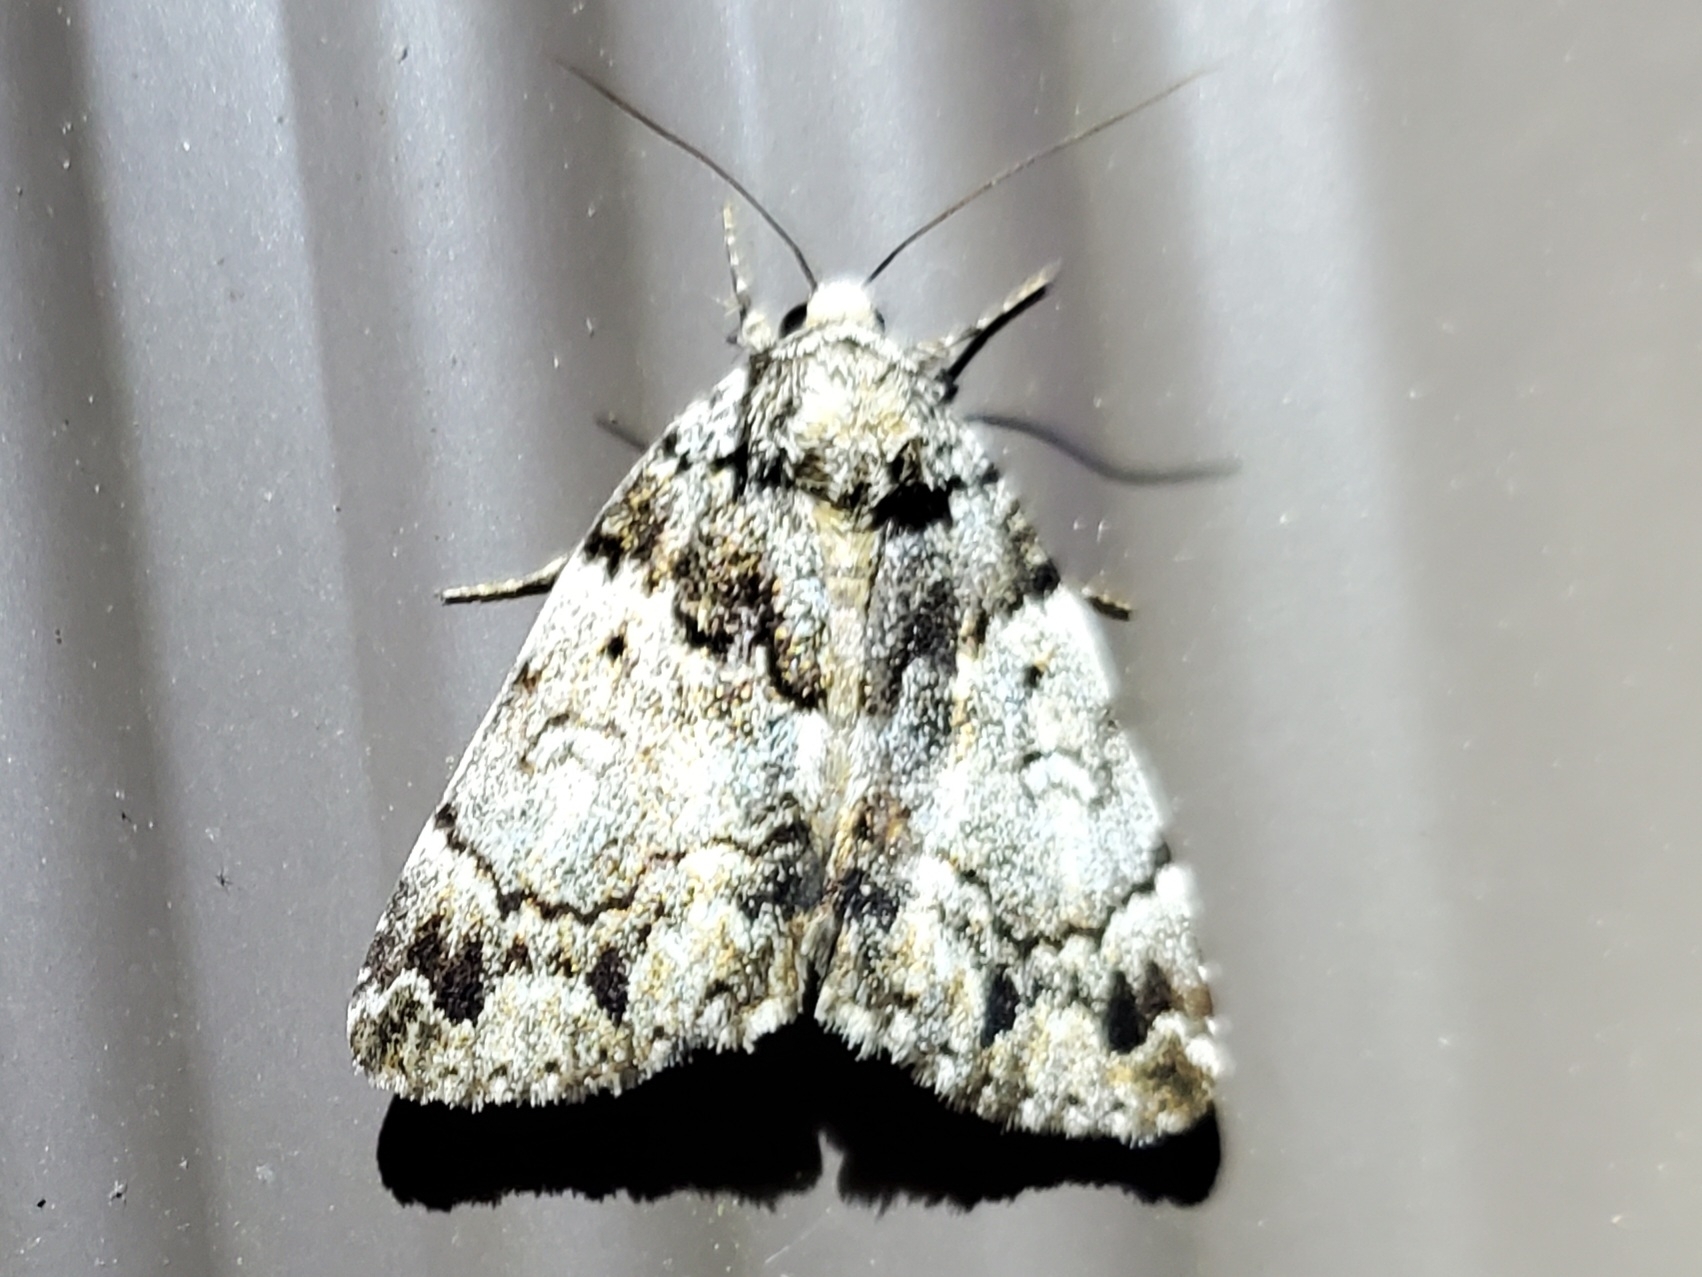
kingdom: Animalia
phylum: Arthropoda
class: Insecta
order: Lepidoptera
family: Erebidae
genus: Allotria
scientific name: Allotria elonympha
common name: False underwing
